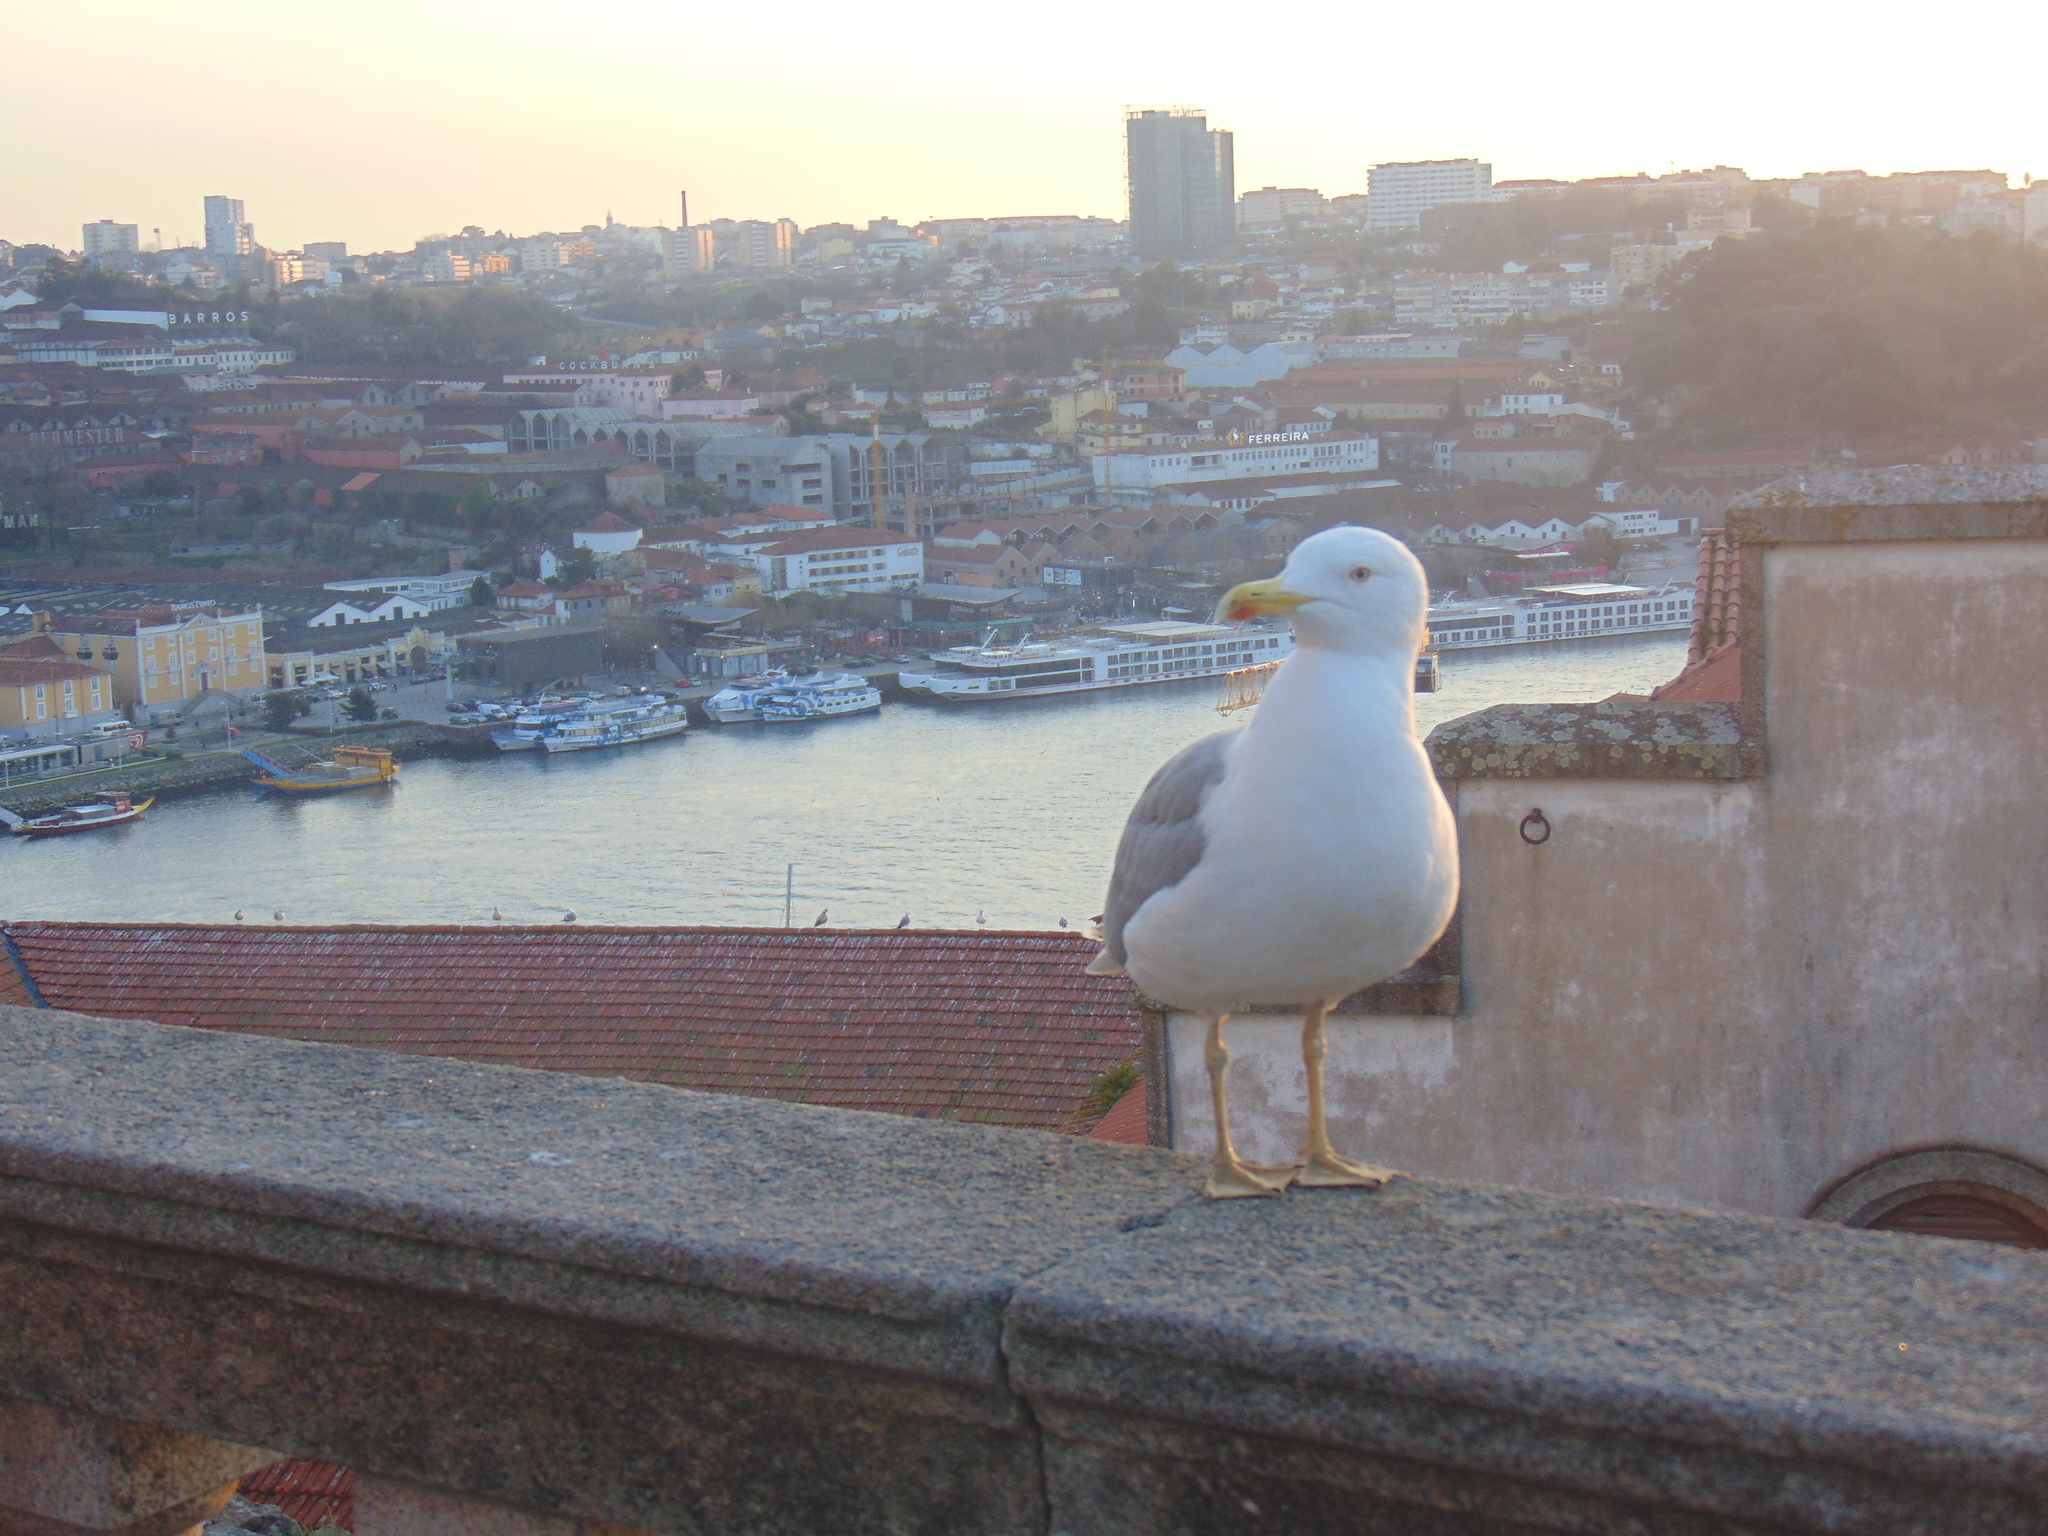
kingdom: Animalia
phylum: Chordata
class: Aves
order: Charadriiformes
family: Laridae
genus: Larus
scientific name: Larus michahellis
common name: Yellow-legged gull
